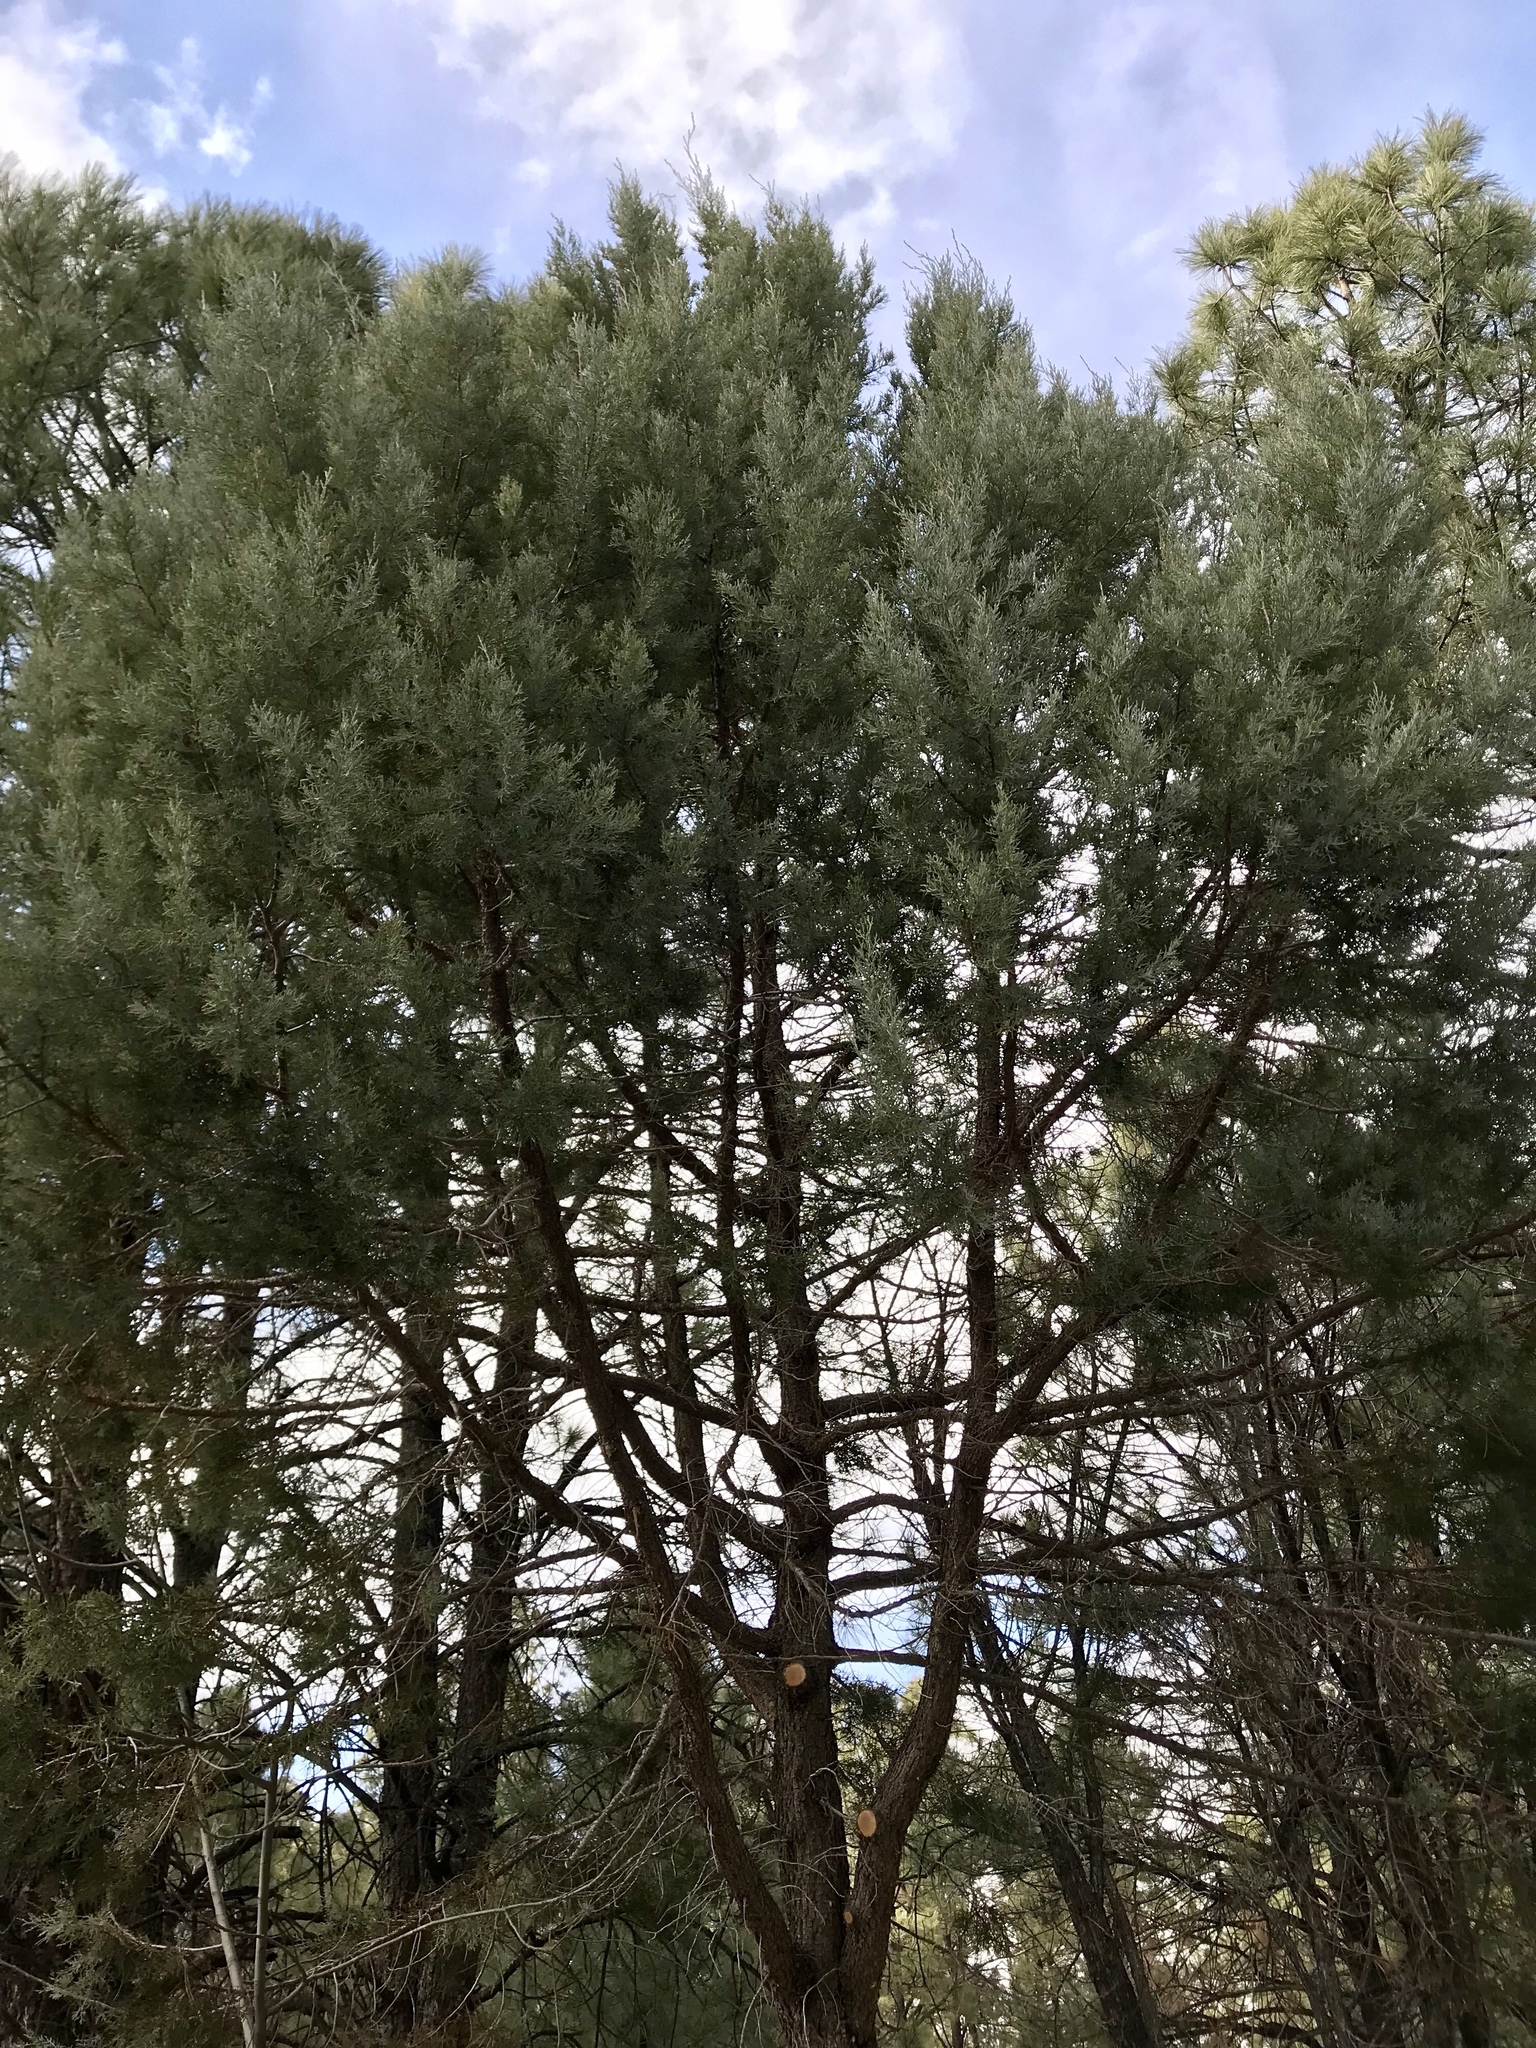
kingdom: Plantae
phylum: Tracheophyta
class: Pinopsida
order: Pinales
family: Cupressaceae
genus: Juniperus
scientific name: Juniperus deppeana
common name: Alligator juniper
